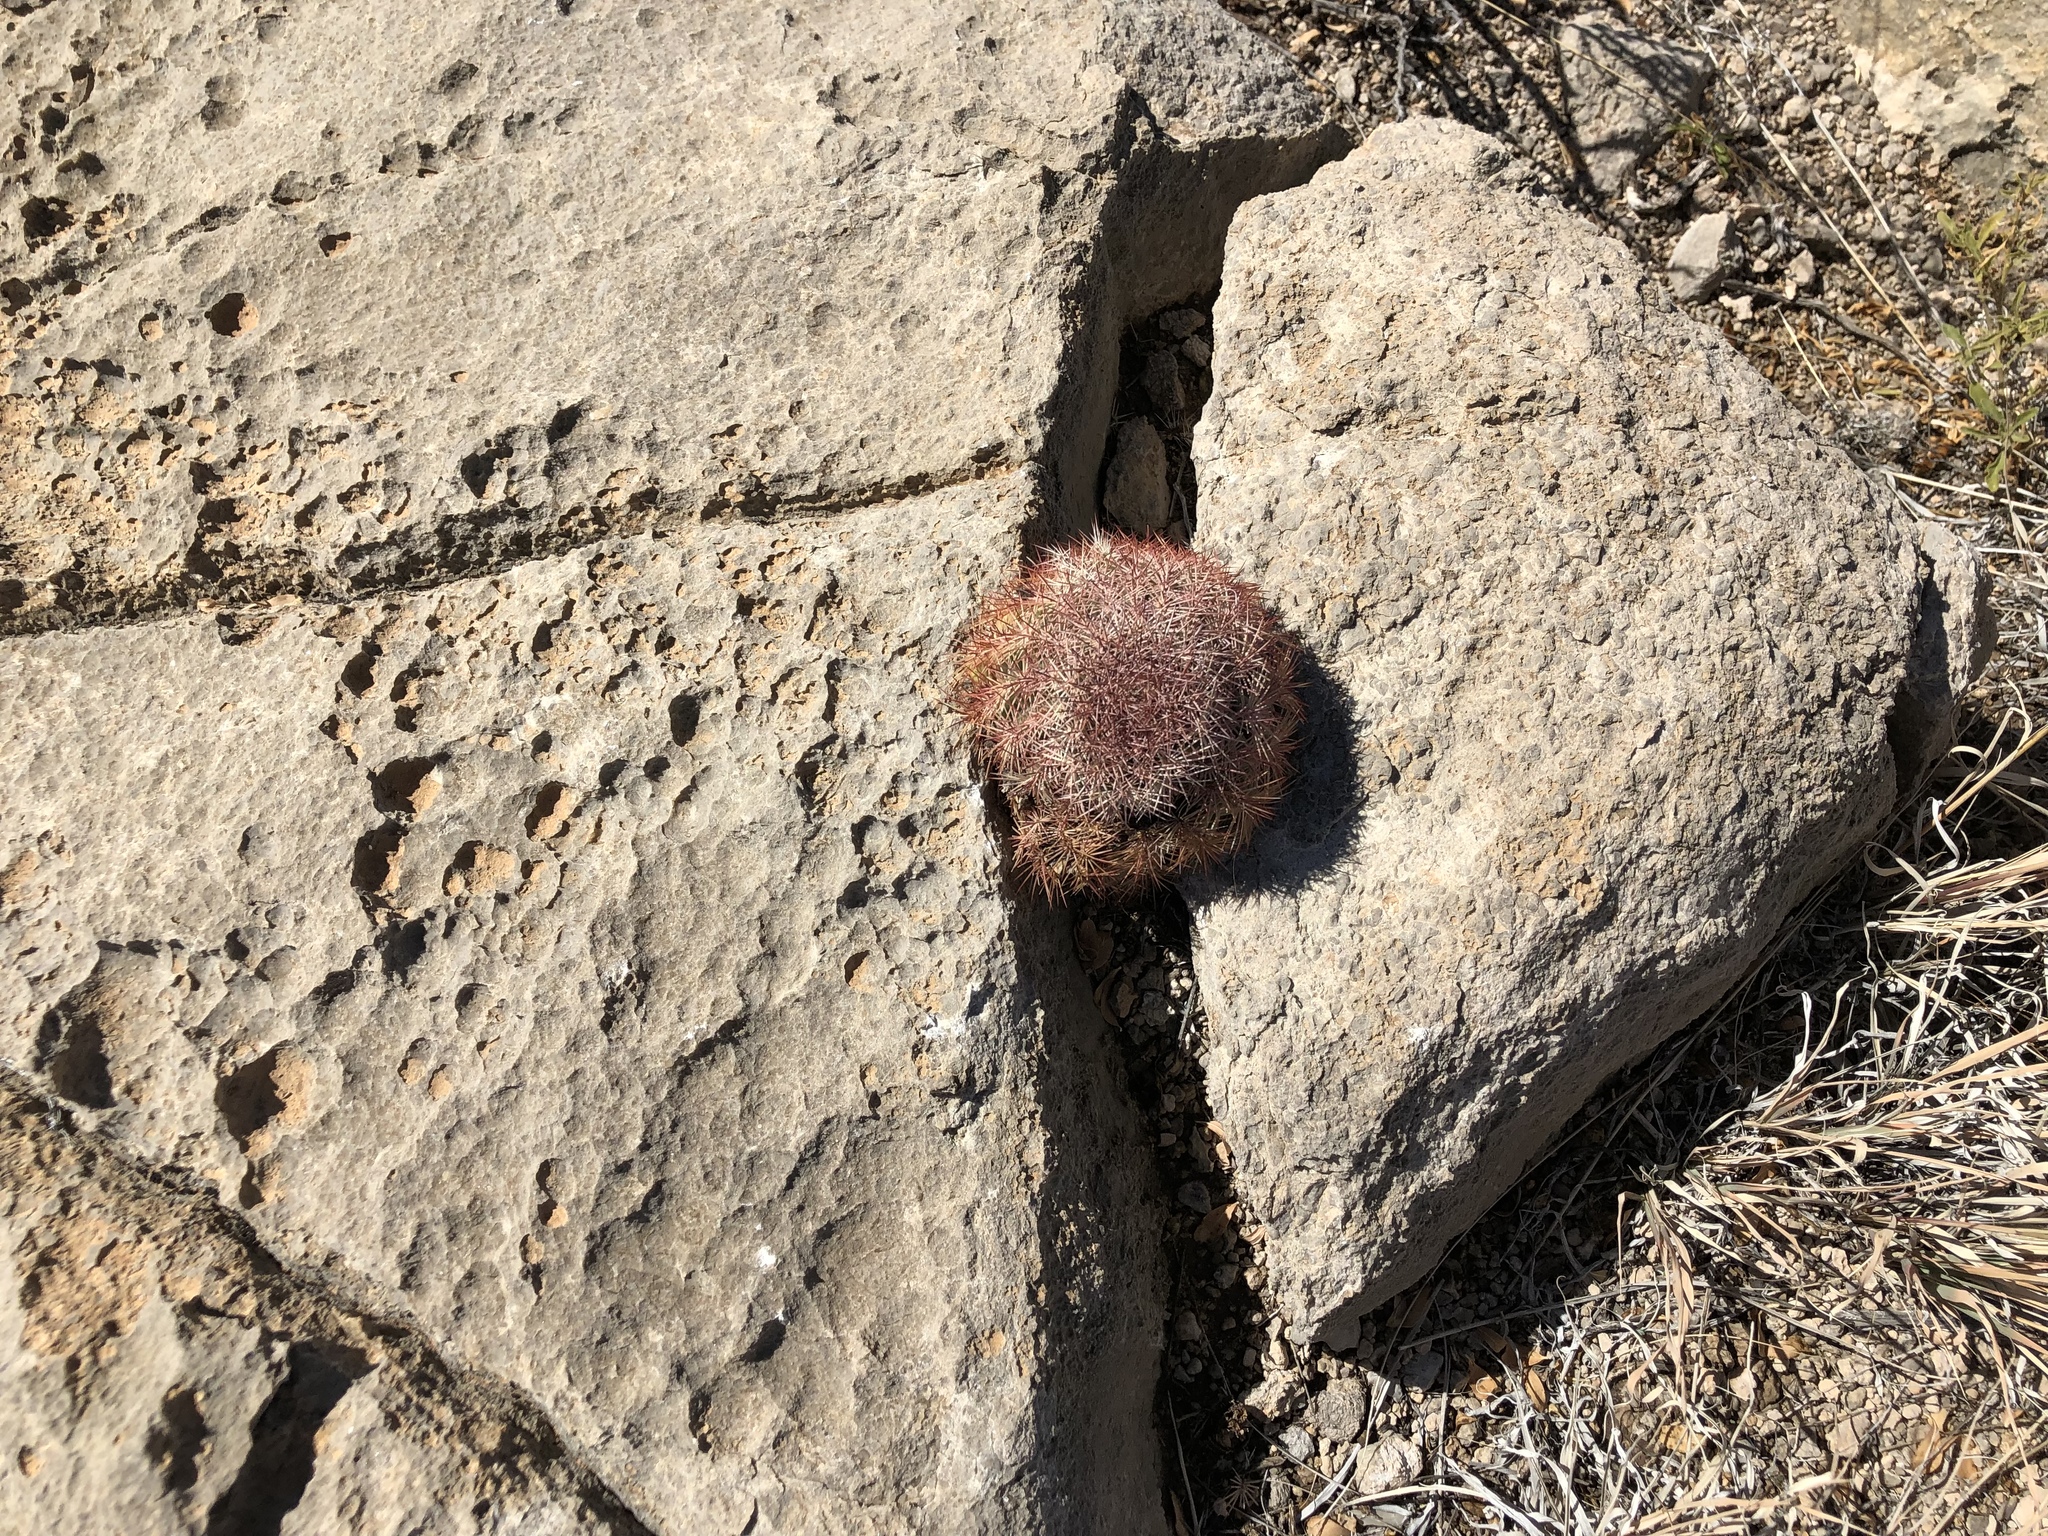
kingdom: Plantae
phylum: Tracheophyta
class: Magnoliopsida
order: Caryophyllales
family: Cactaceae
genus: Echinocereus
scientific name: Echinocereus dasyacanthus
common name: Spiny hedgehog cactus
